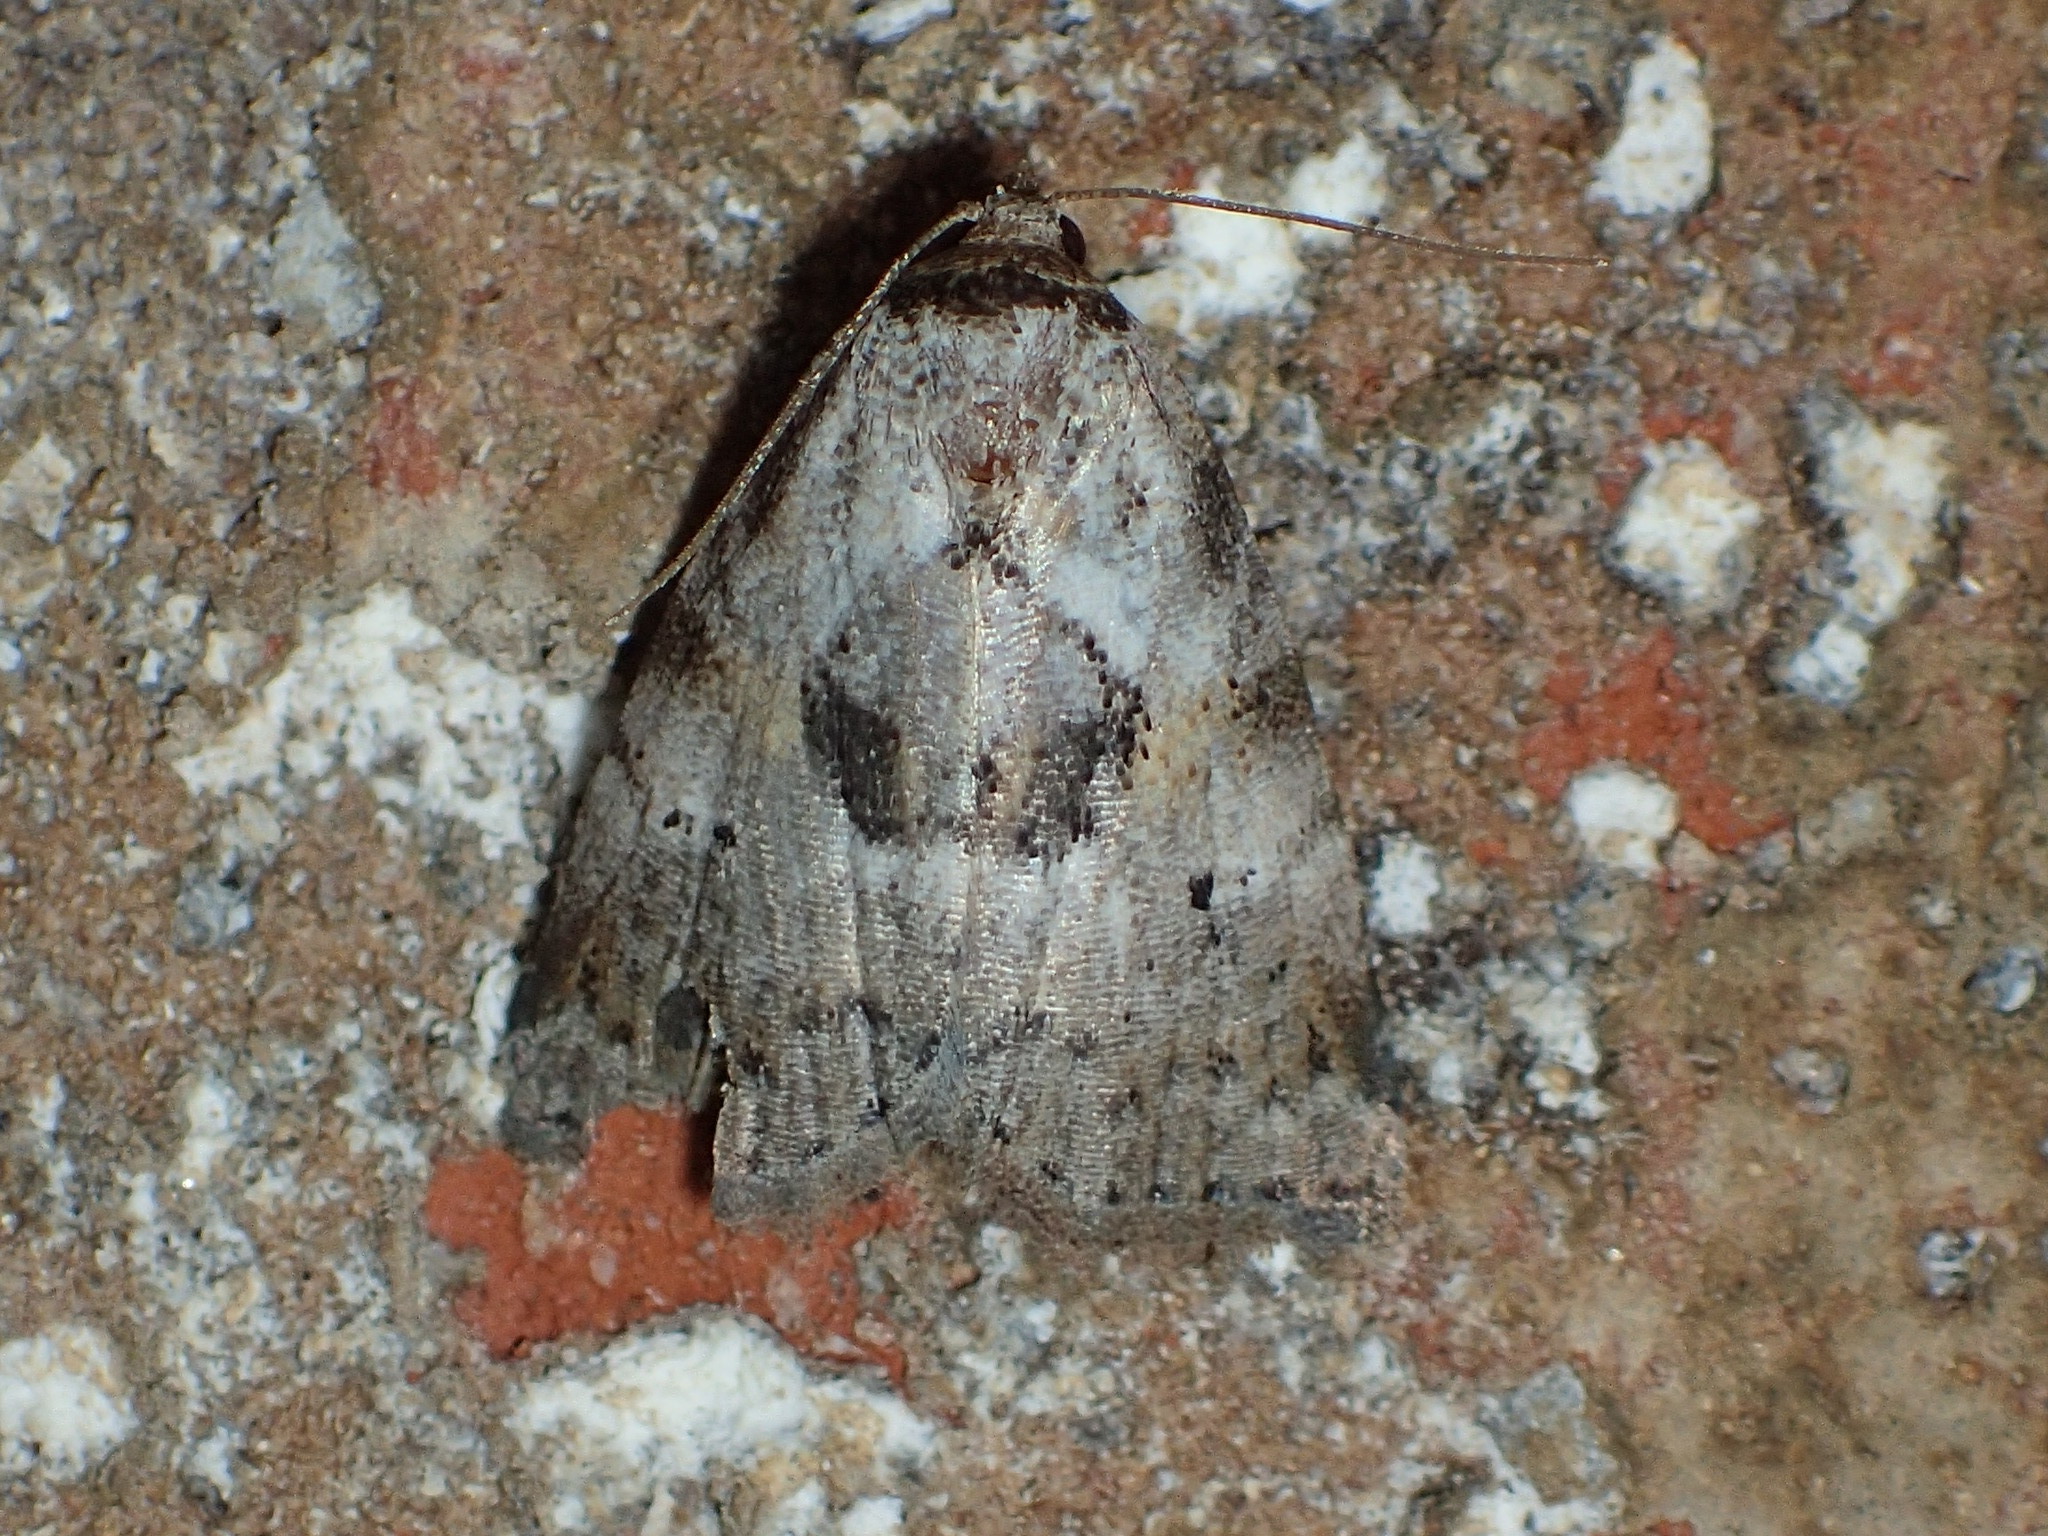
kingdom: Animalia
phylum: Arthropoda
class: Insecta
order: Lepidoptera
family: Erebidae
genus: Hyperstrotia
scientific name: Hyperstrotia secta
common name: Black-patched graylet
